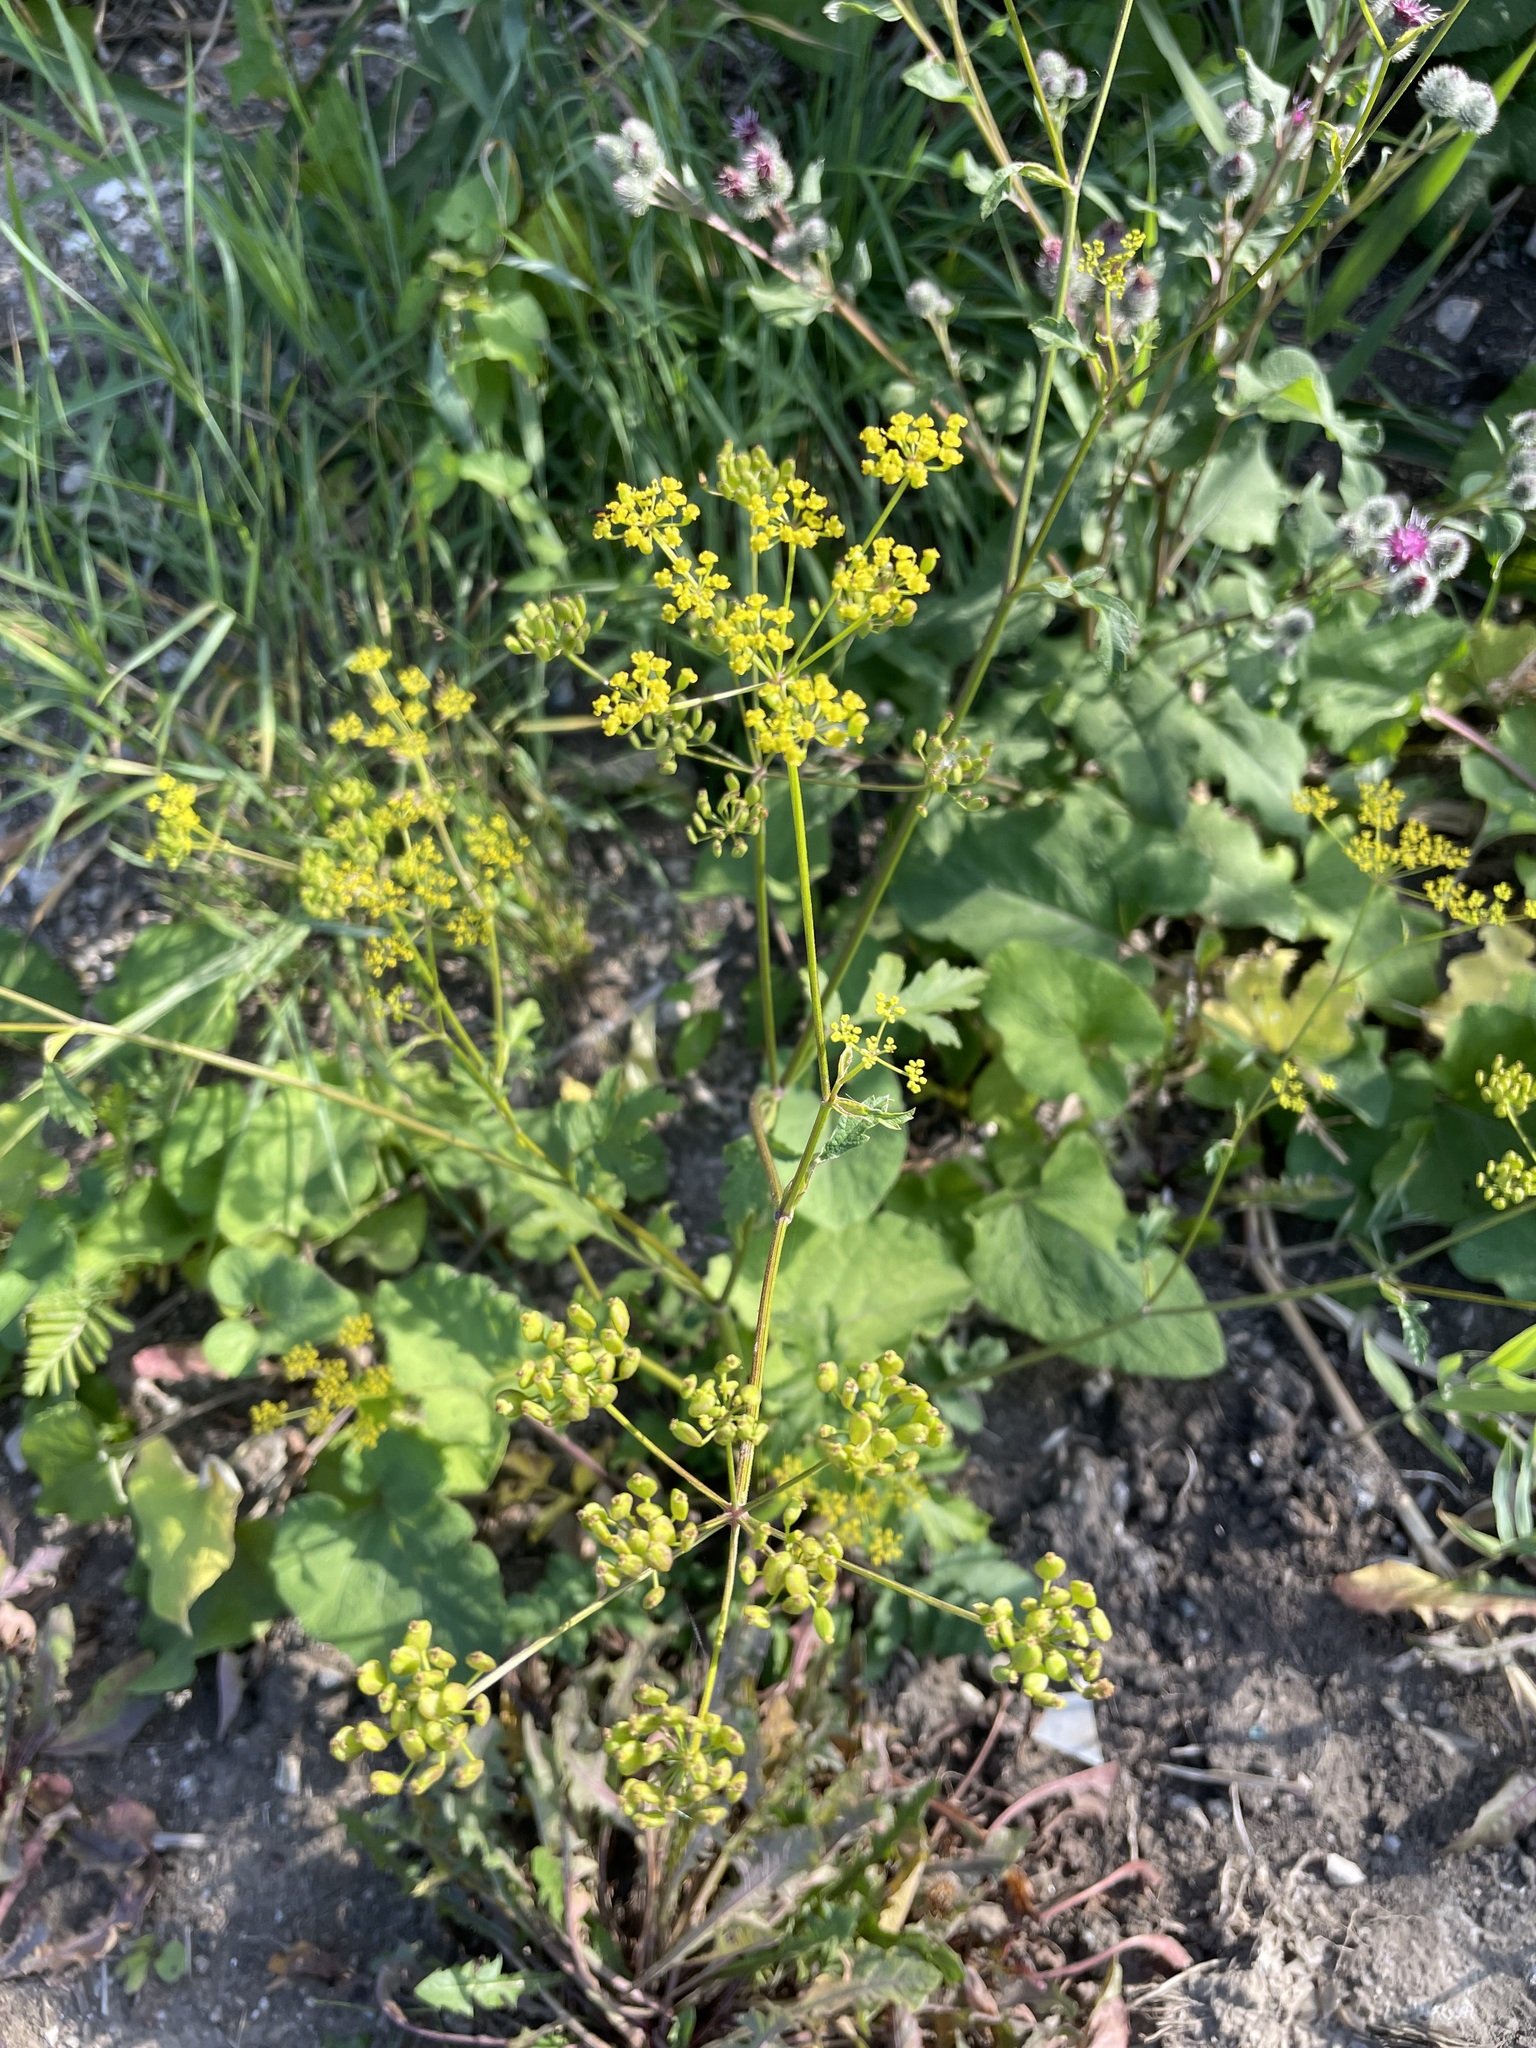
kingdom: Plantae
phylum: Tracheophyta
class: Magnoliopsida
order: Apiales
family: Apiaceae
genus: Pastinaca
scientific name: Pastinaca sativa
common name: Wild parsnip
